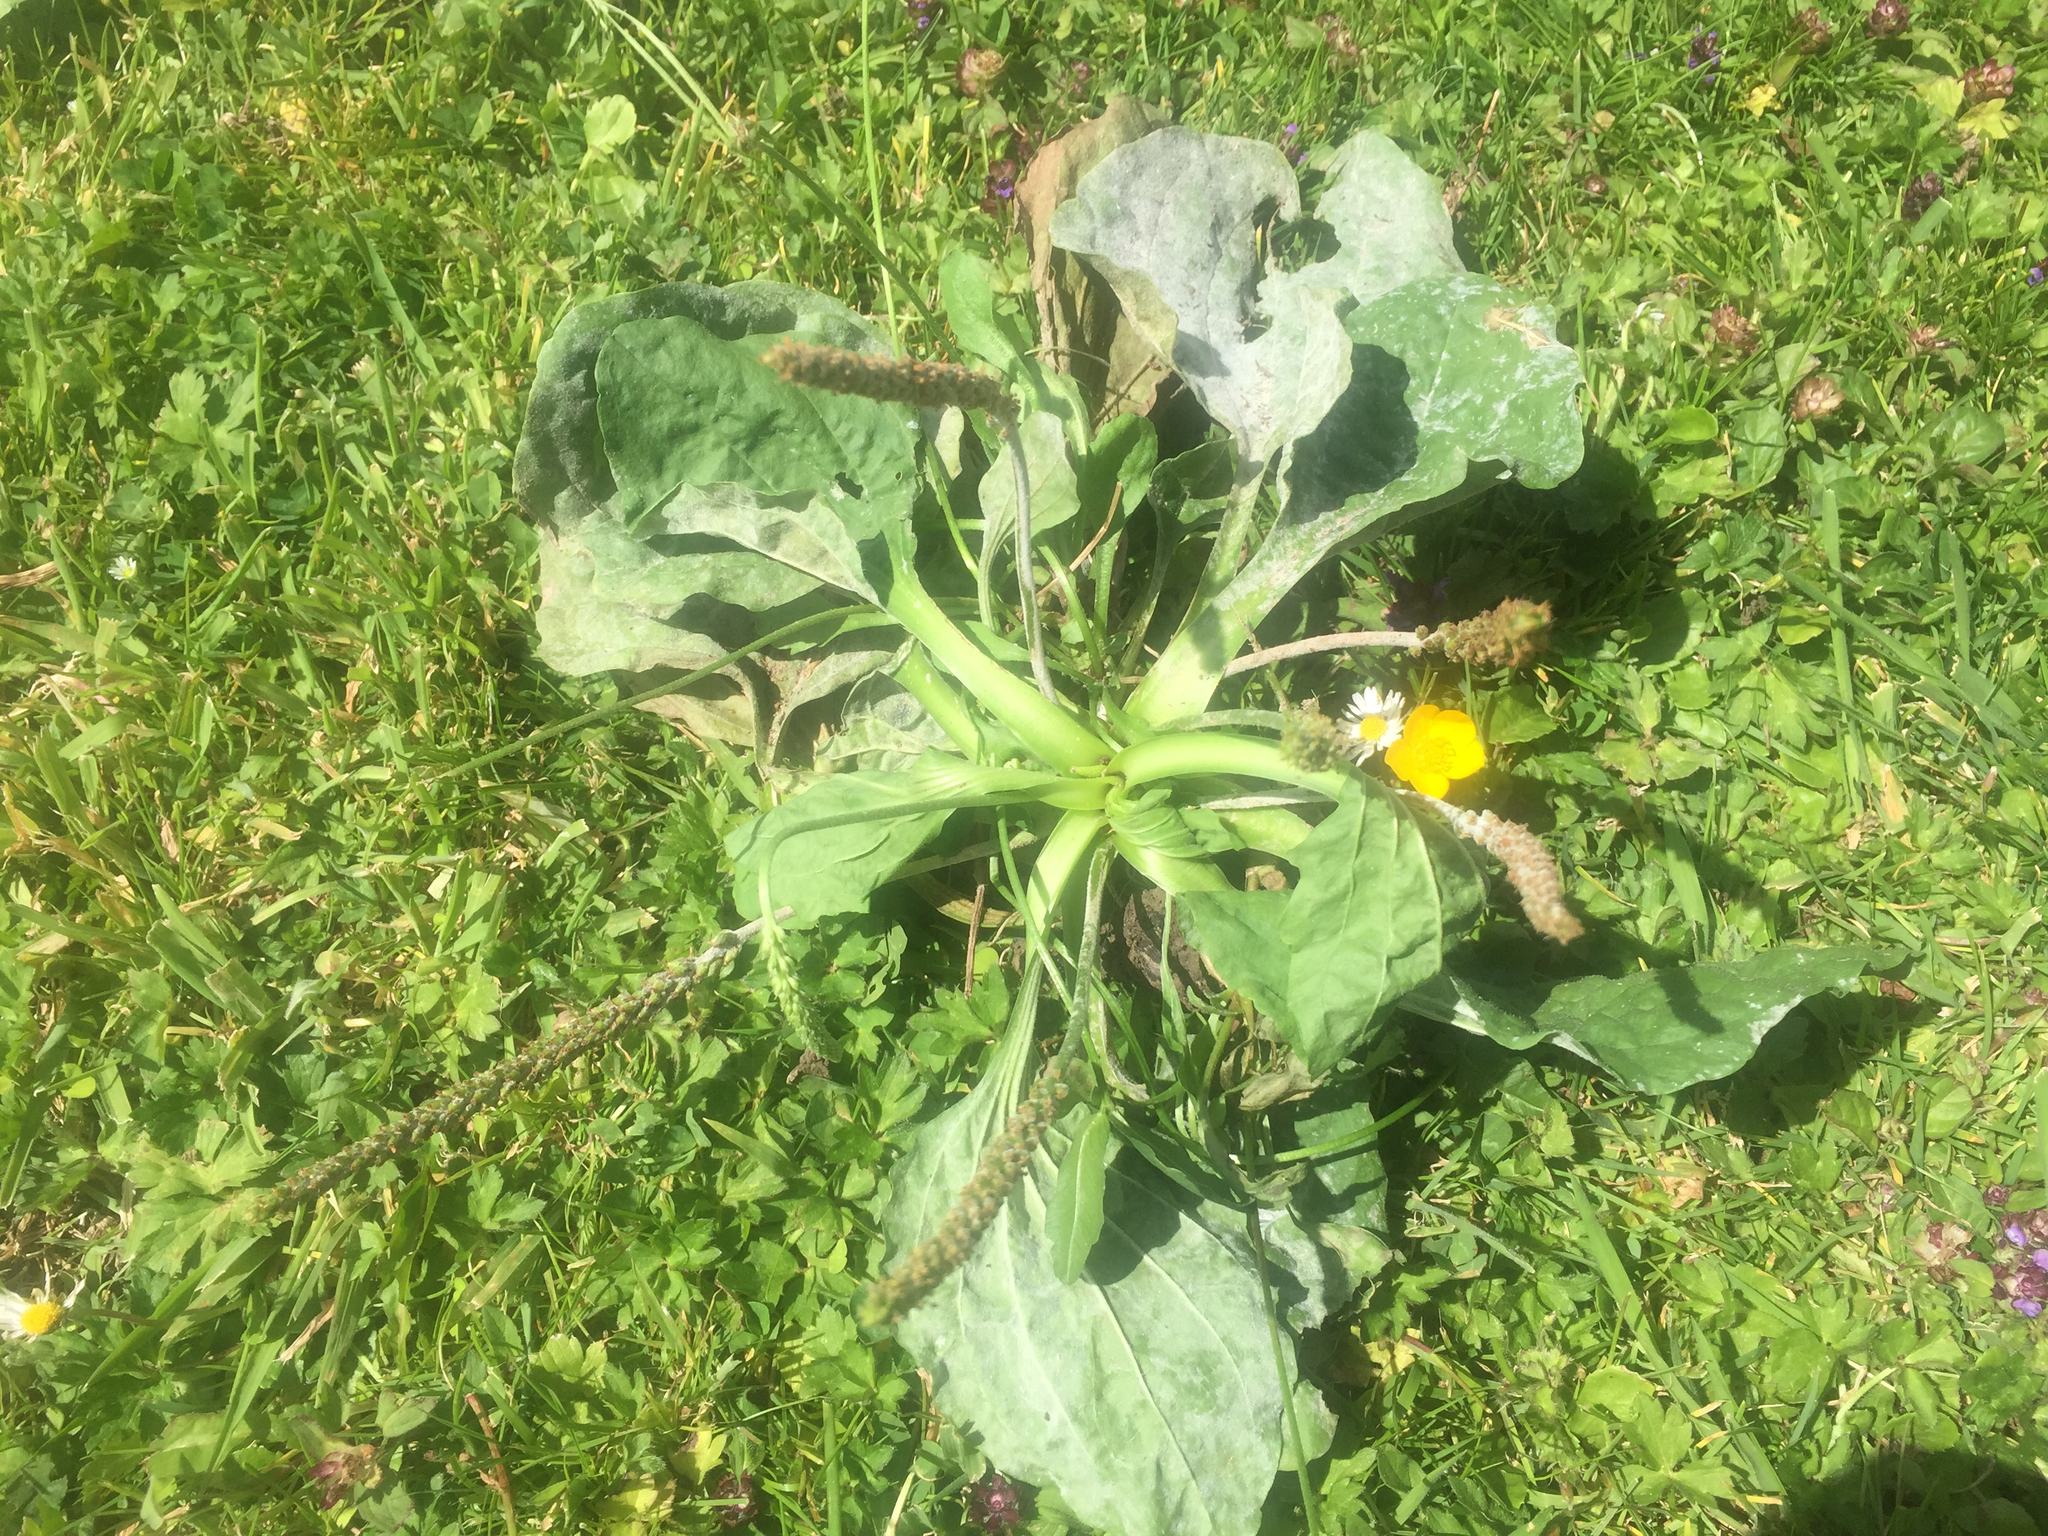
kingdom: Plantae
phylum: Tracheophyta
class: Magnoliopsida
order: Lamiales
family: Plantaginaceae
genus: Plantago
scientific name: Plantago major
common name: Common plantain
